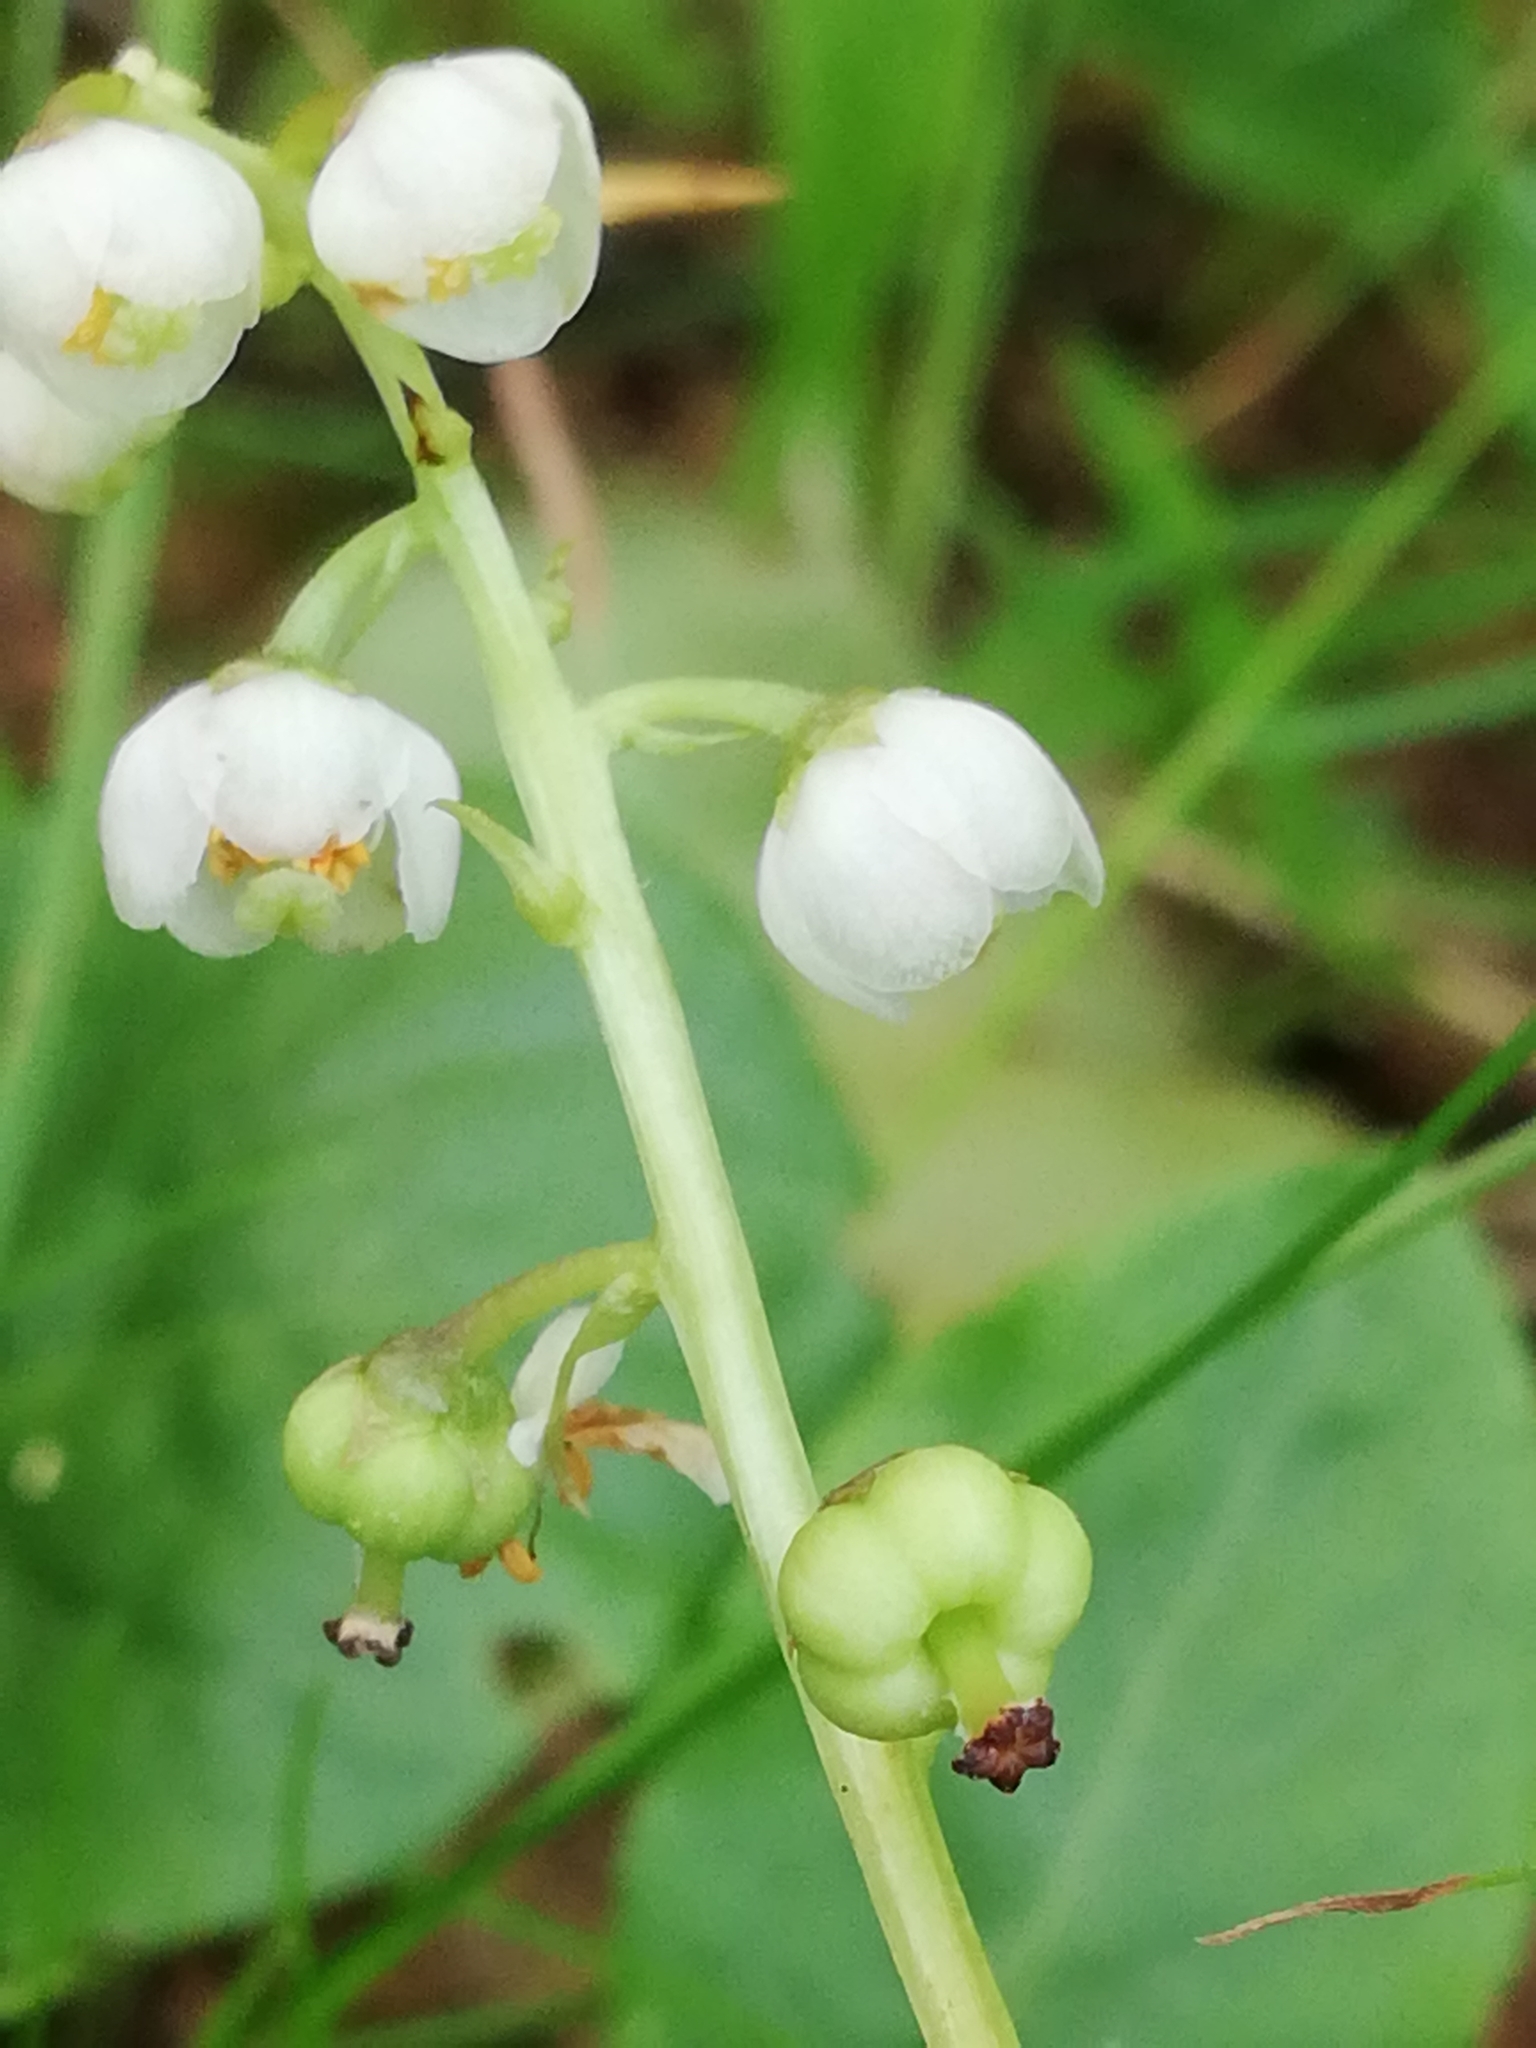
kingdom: Plantae
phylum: Tracheophyta
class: Magnoliopsida
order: Ericales
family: Ericaceae
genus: Pyrola
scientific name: Pyrola minor
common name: Common wintergreen
